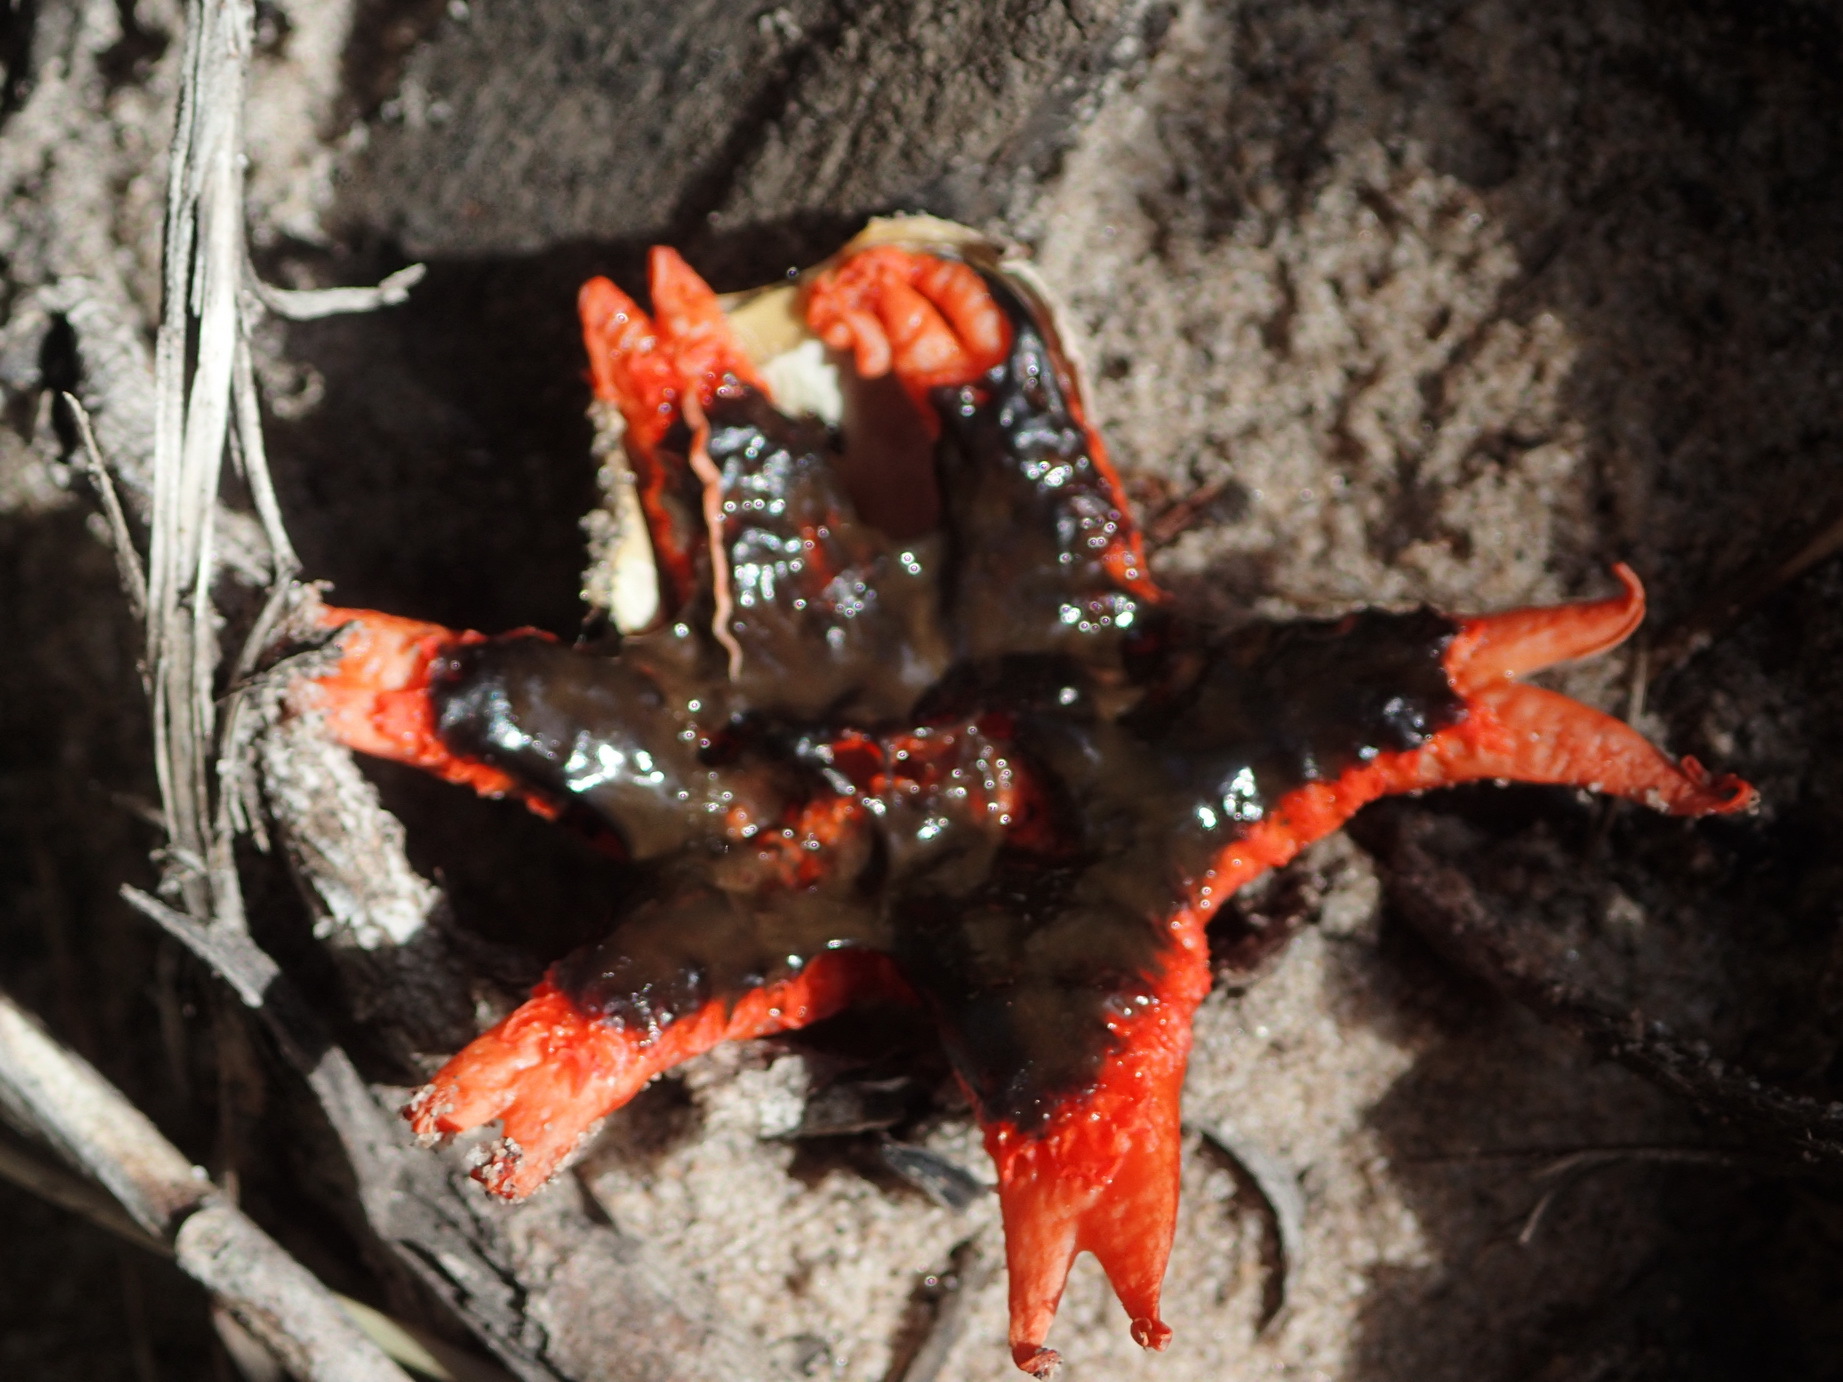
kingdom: Fungi
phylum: Basidiomycota
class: Agaricomycetes
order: Phallales
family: Phallaceae
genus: Aseroe
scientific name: Aseroe rubra
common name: Starfish fungus
